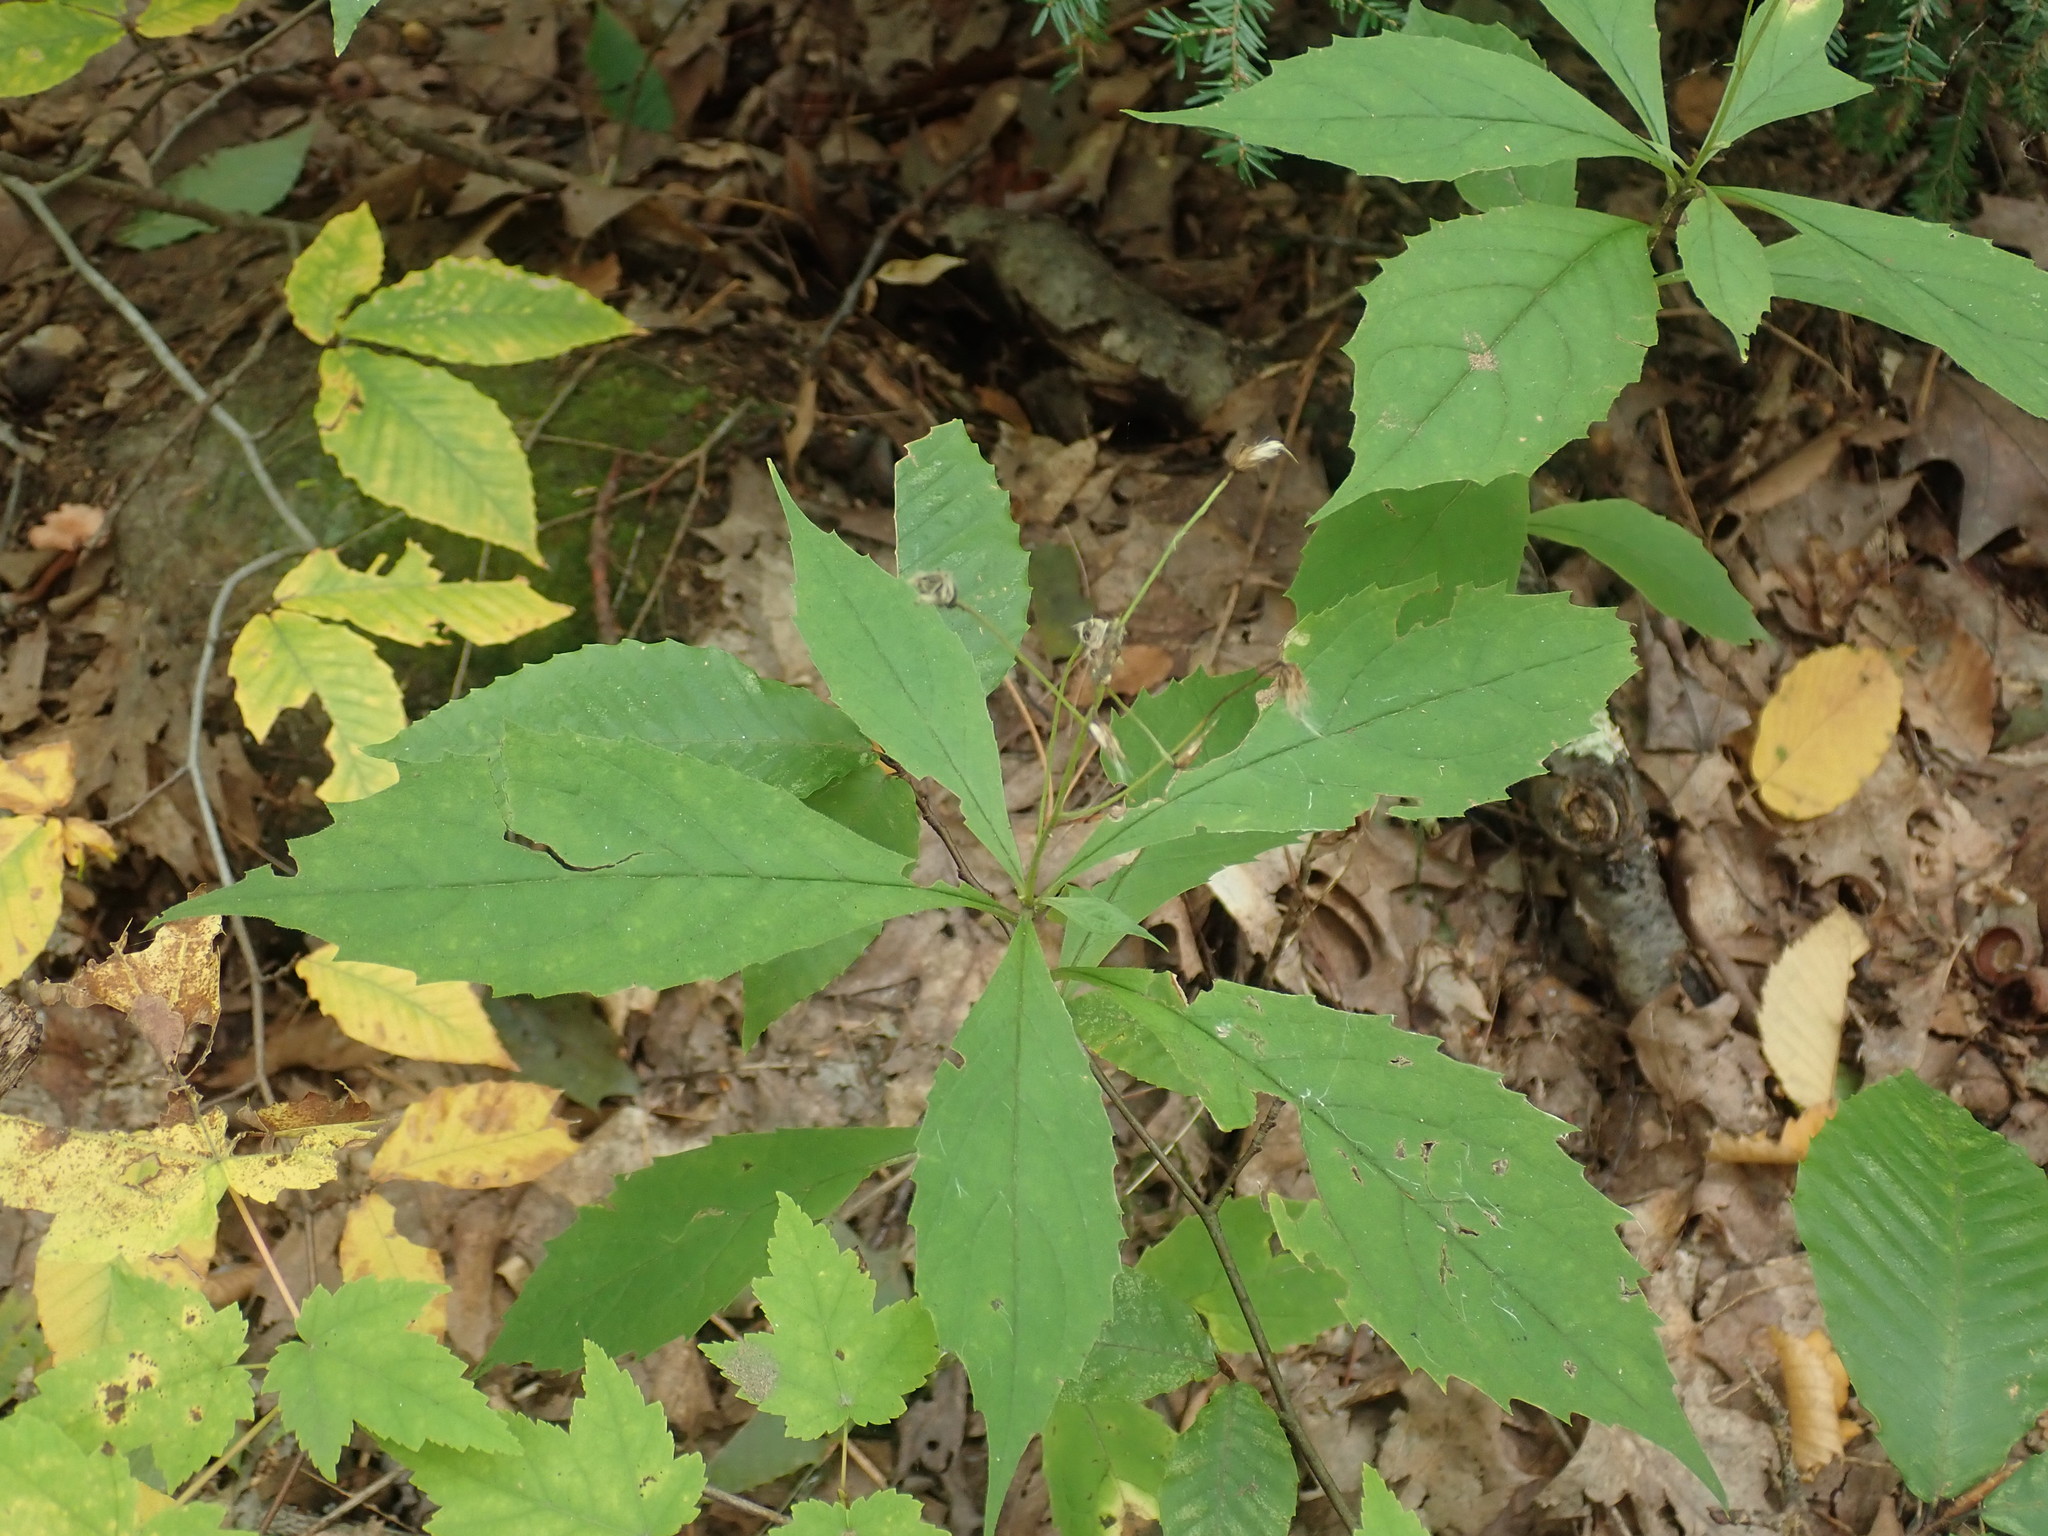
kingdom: Plantae
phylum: Tracheophyta
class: Magnoliopsida
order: Asterales
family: Asteraceae
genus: Oclemena
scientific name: Oclemena acuminata
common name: Mountain aster
